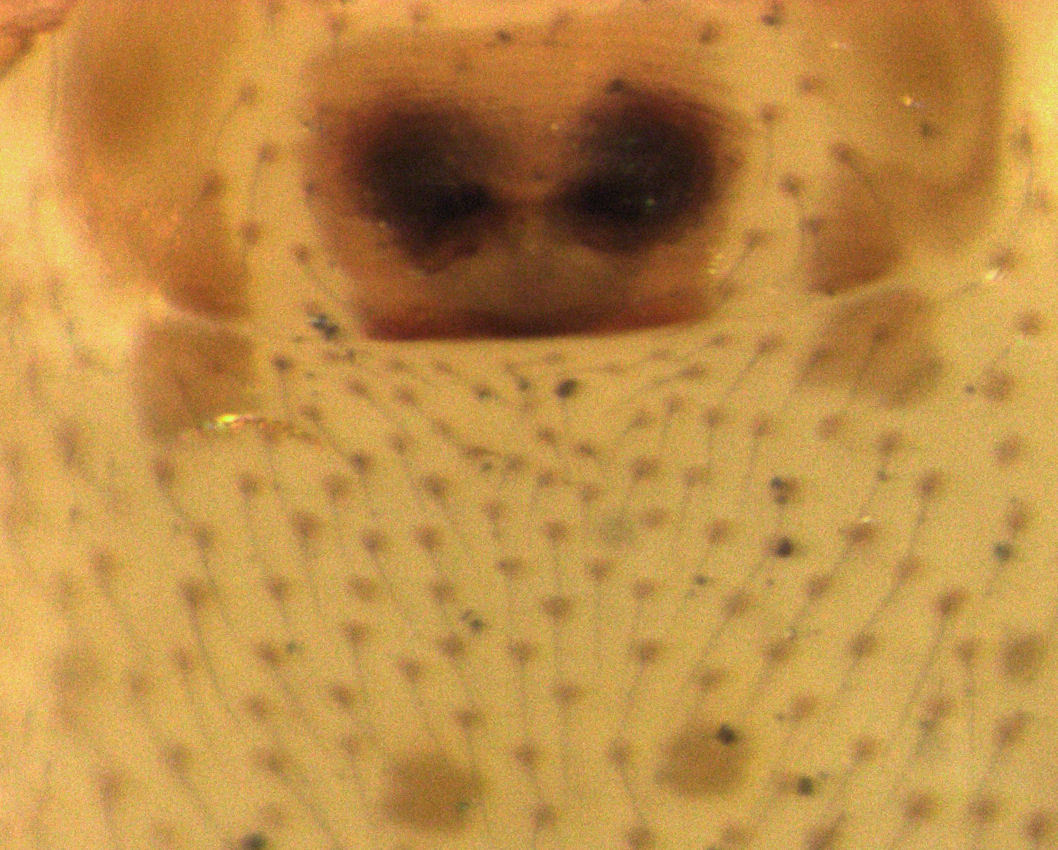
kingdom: Animalia
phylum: Arthropoda
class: Arachnida
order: Araneae
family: Malkaridae
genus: Pararchaea
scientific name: Pararchaea alba
